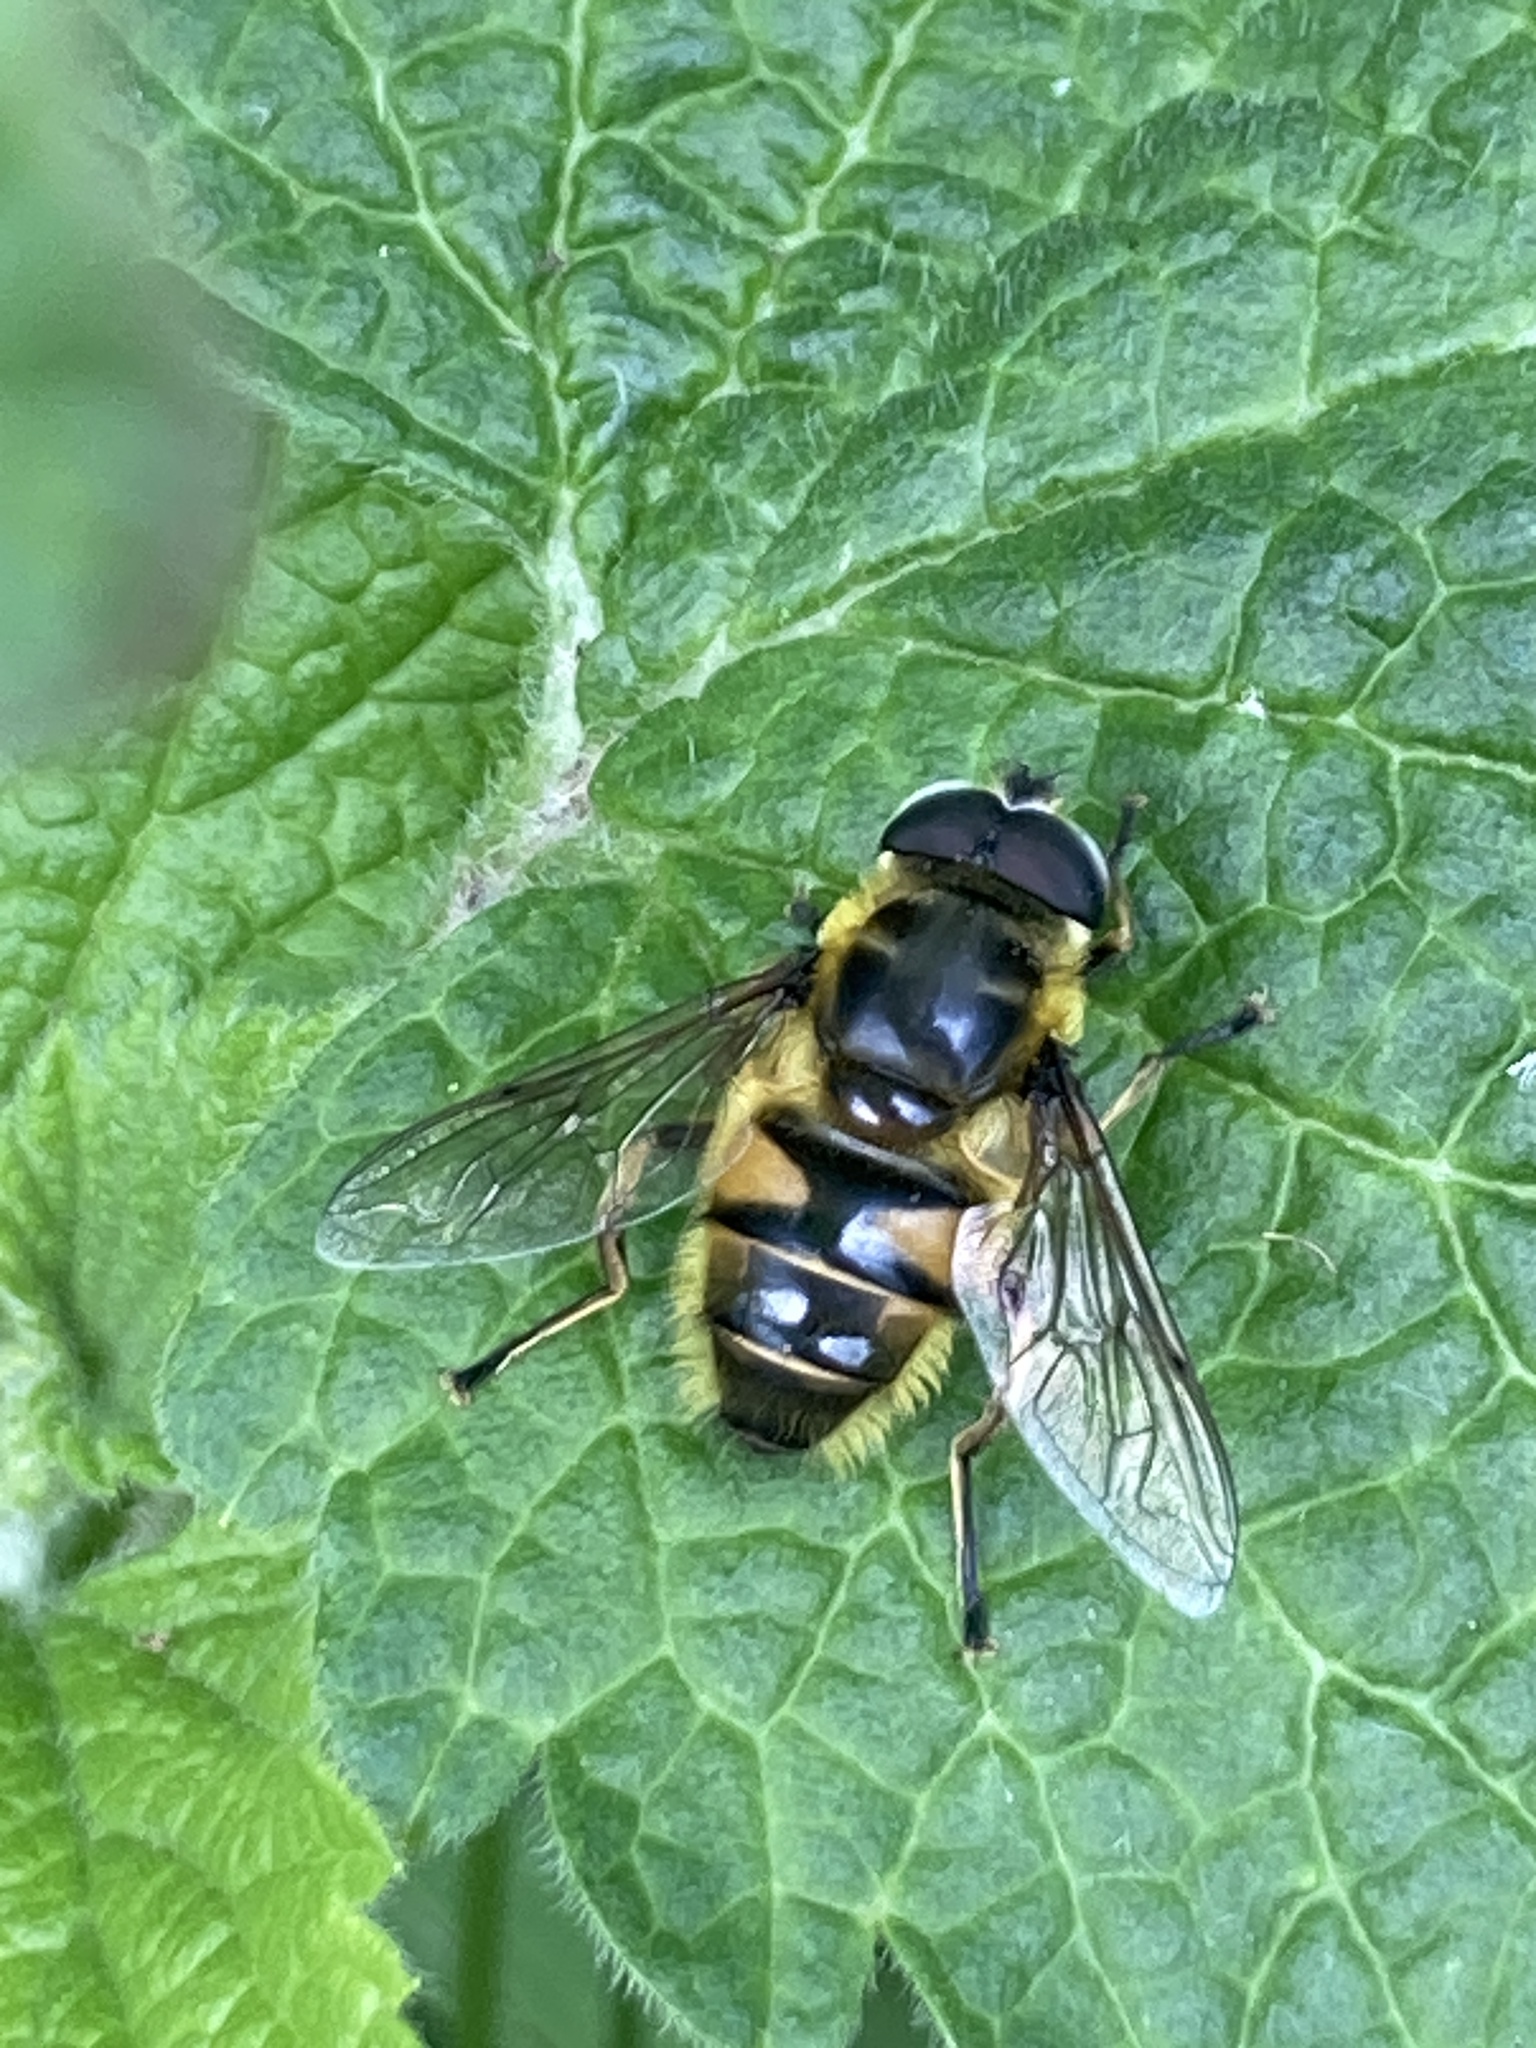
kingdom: Animalia
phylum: Arthropoda
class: Insecta
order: Diptera
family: Syrphidae
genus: Myathropa
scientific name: Myathropa florea
